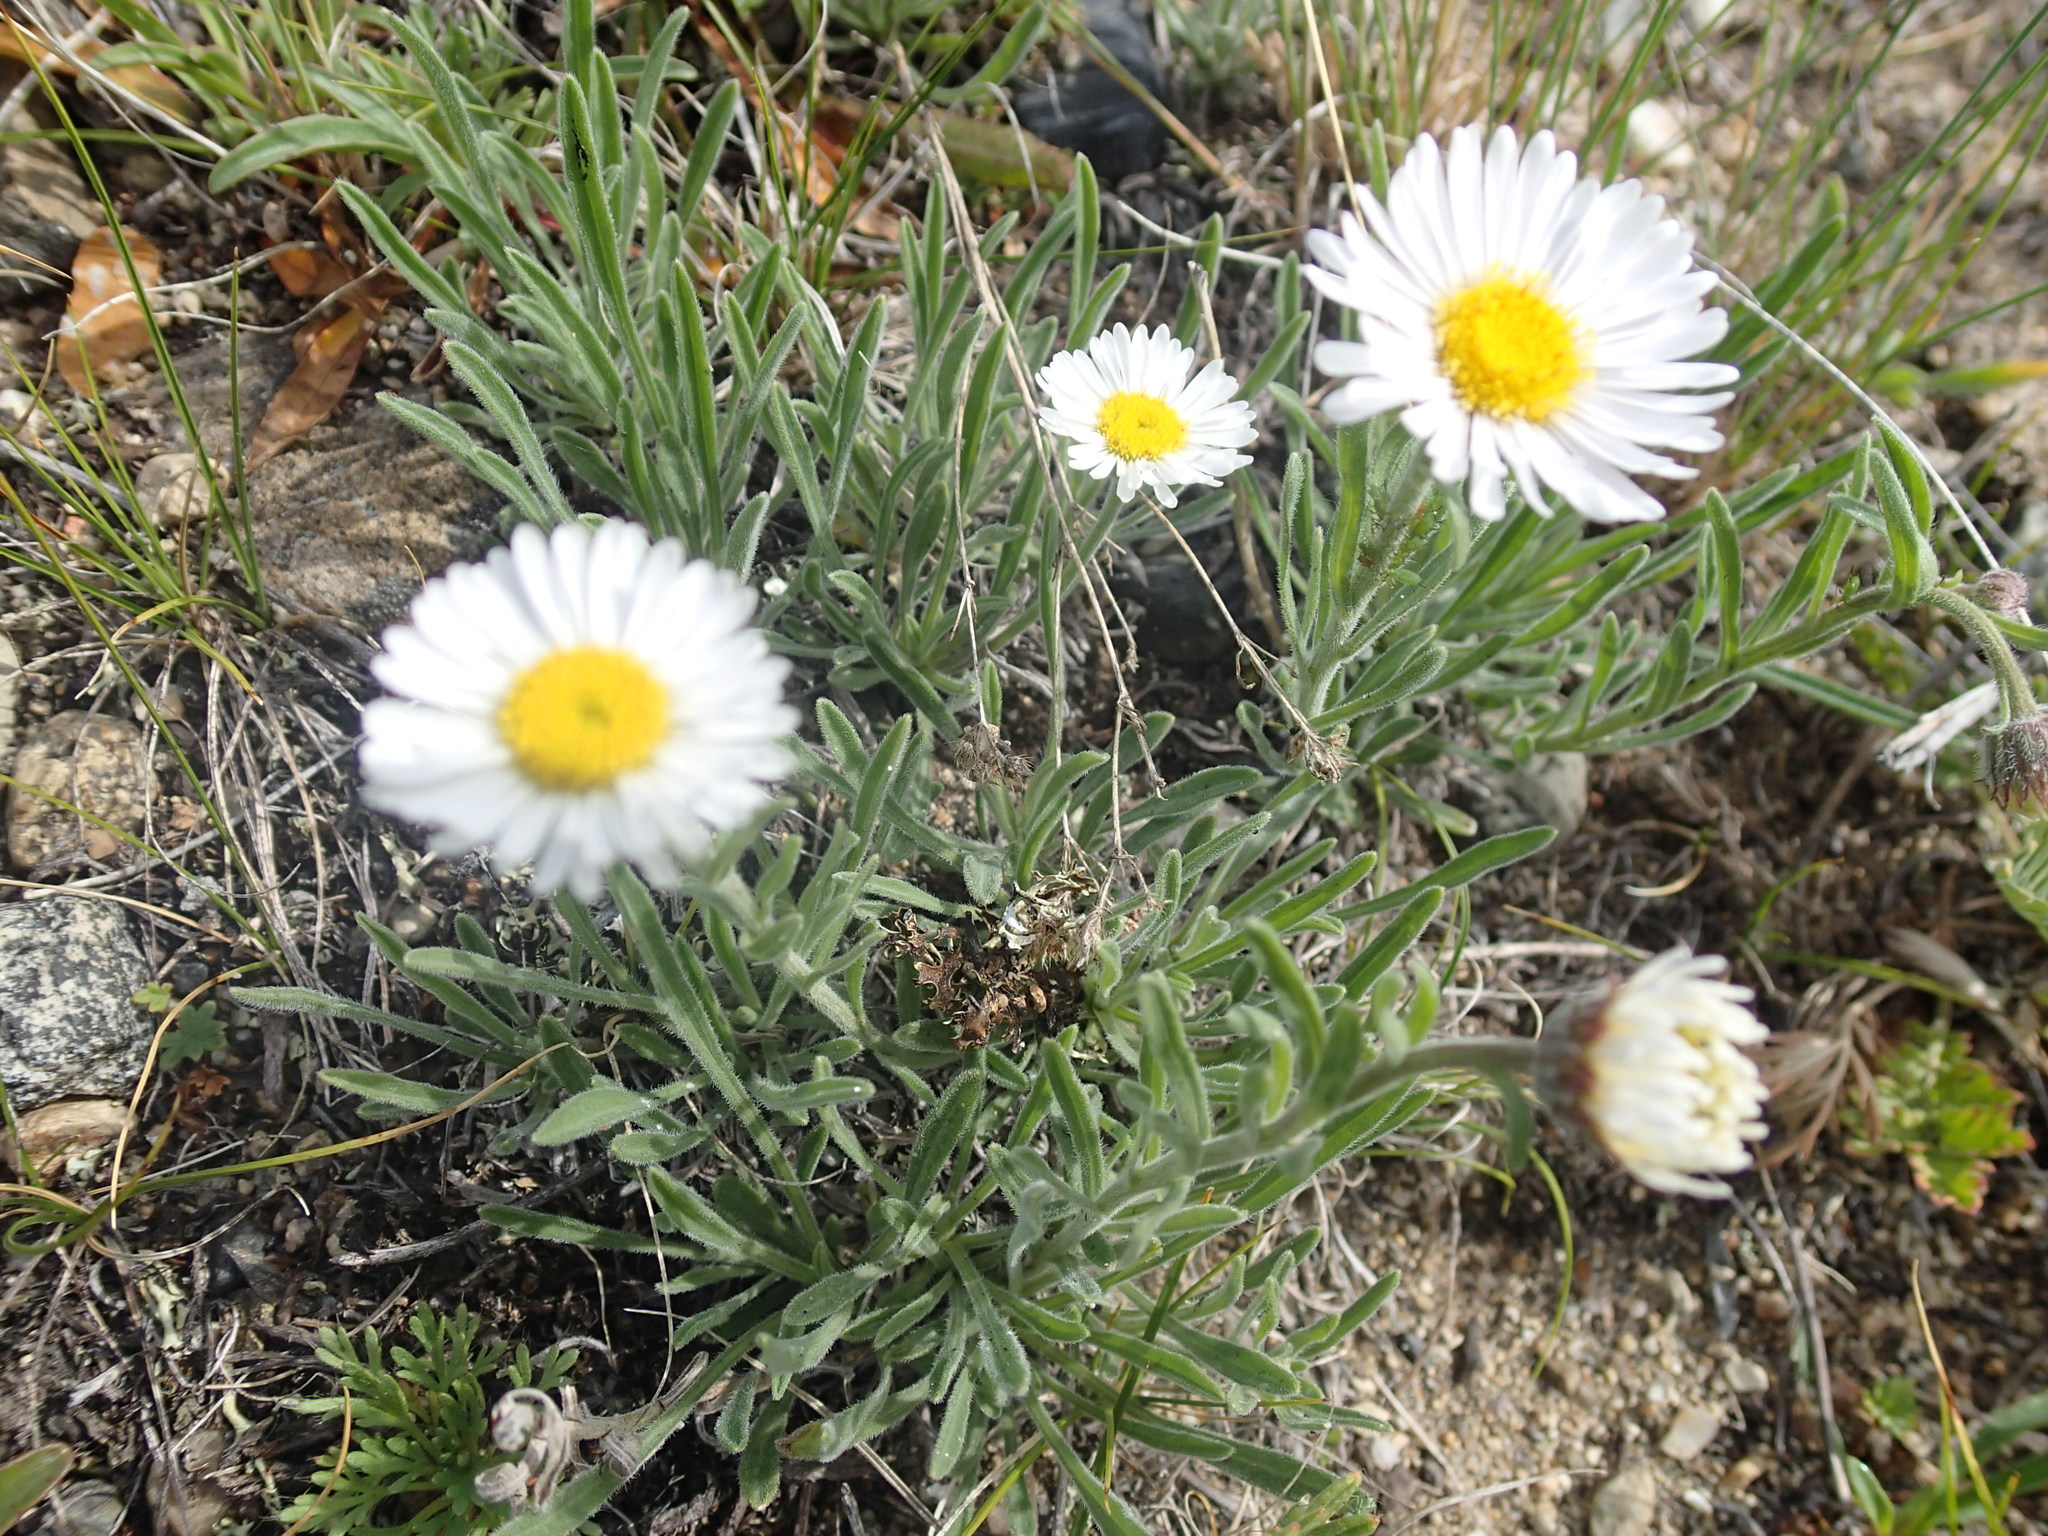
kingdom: Plantae
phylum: Tracheophyta
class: Magnoliopsida
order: Asterales
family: Asteraceae
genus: Erigeron
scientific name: Erigeron caespitosus
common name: Tufted fleabane
